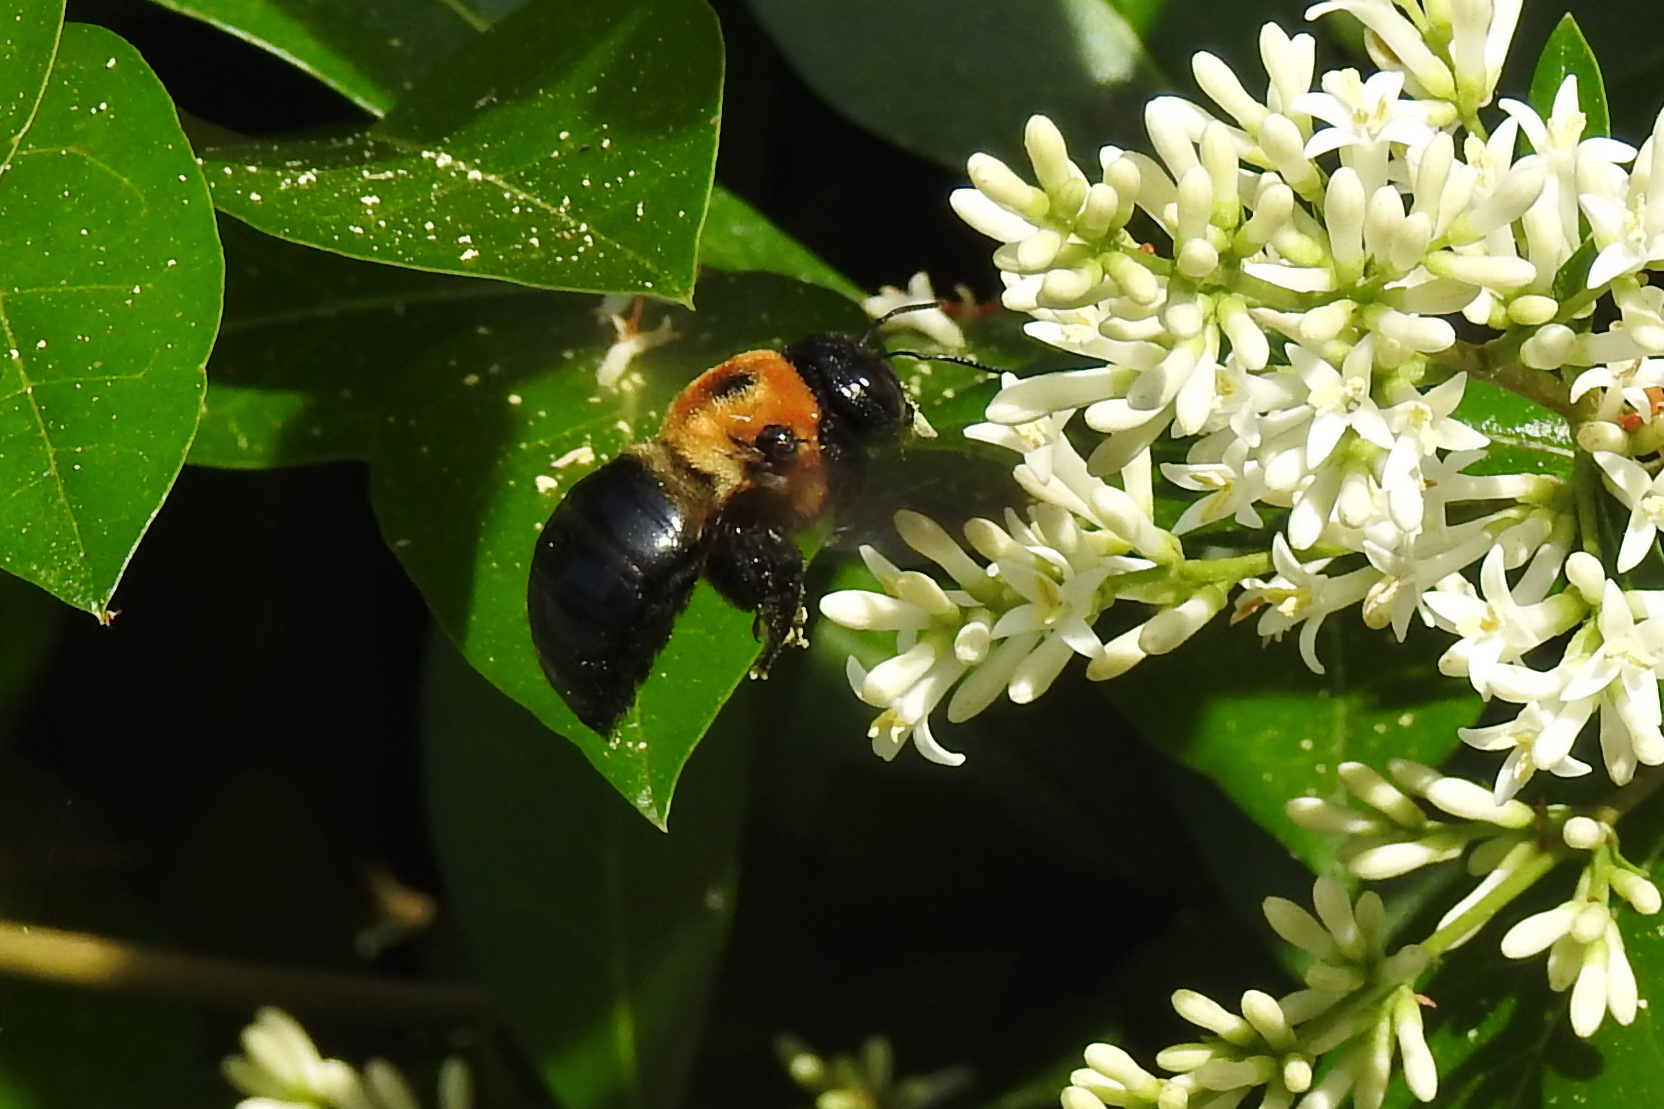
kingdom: Animalia
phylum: Arthropoda
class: Insecta
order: Hymenoptera
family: Apidae
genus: Xylocopa
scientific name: Xylocopa virginica
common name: Carpenter bee
